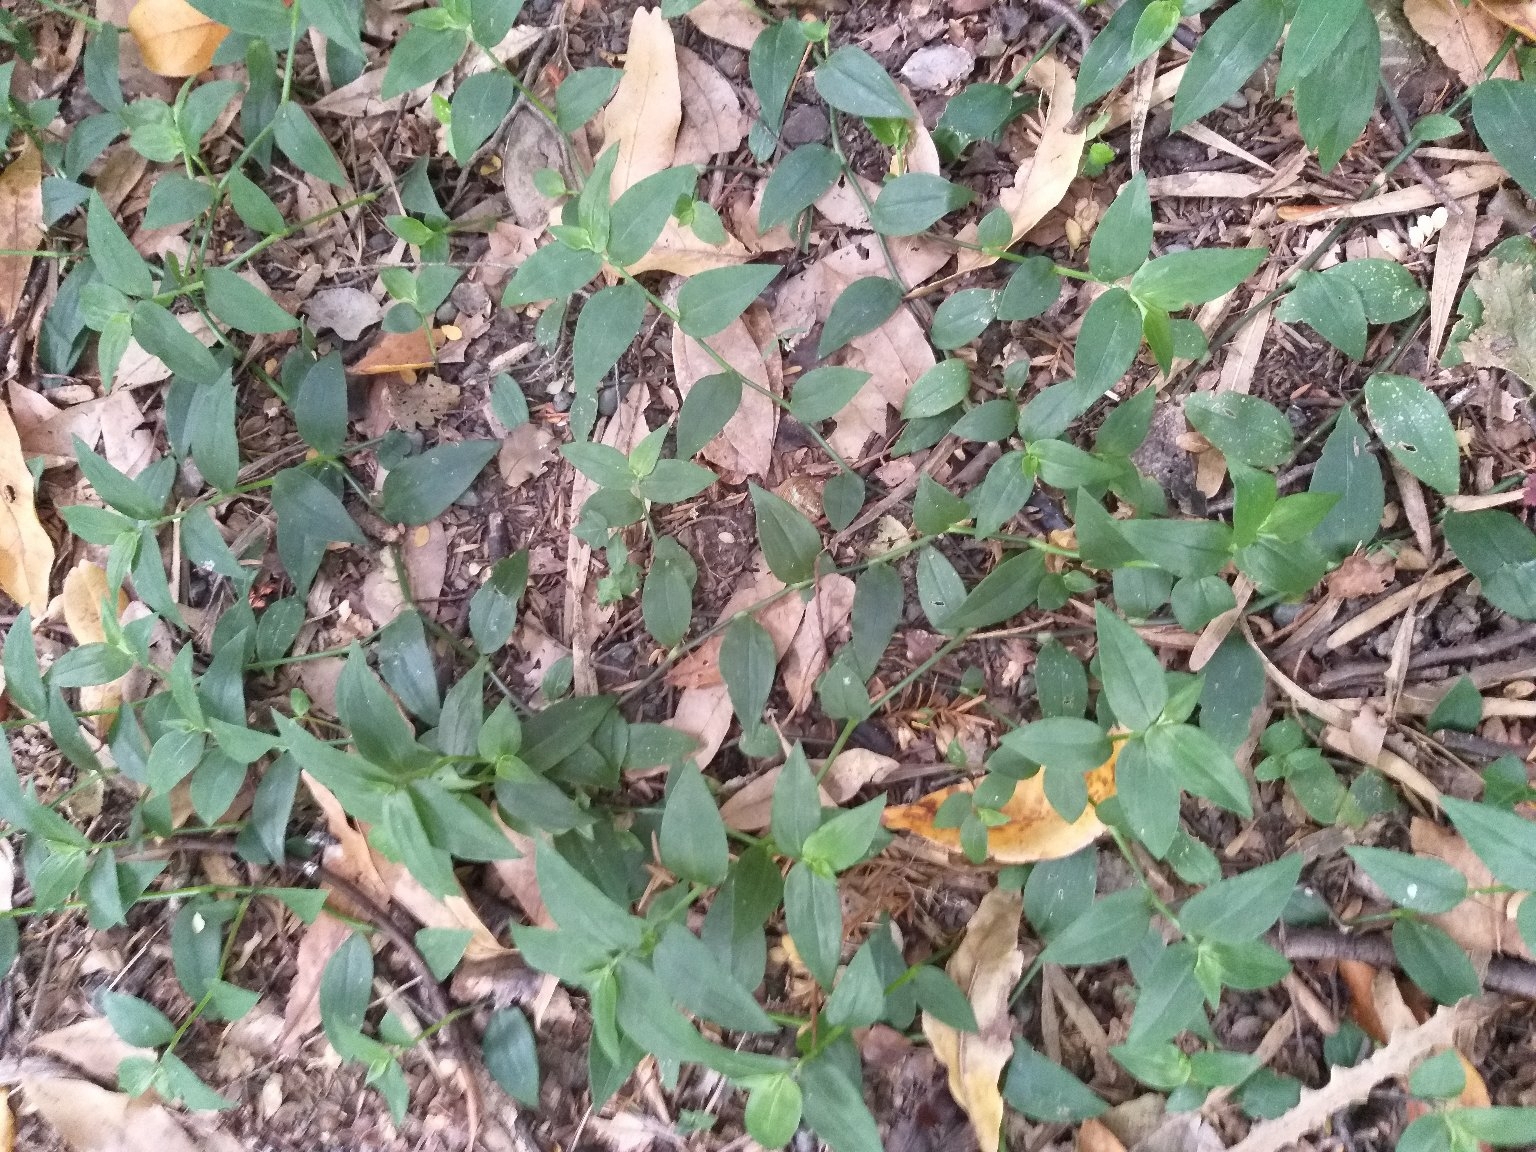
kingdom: Plantae
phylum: Tracheophyta
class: Liliopsida
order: Commelinales
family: Commelinaceae
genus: Tradescantia
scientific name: Tradescantia fluminensis
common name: Wandering-jew
